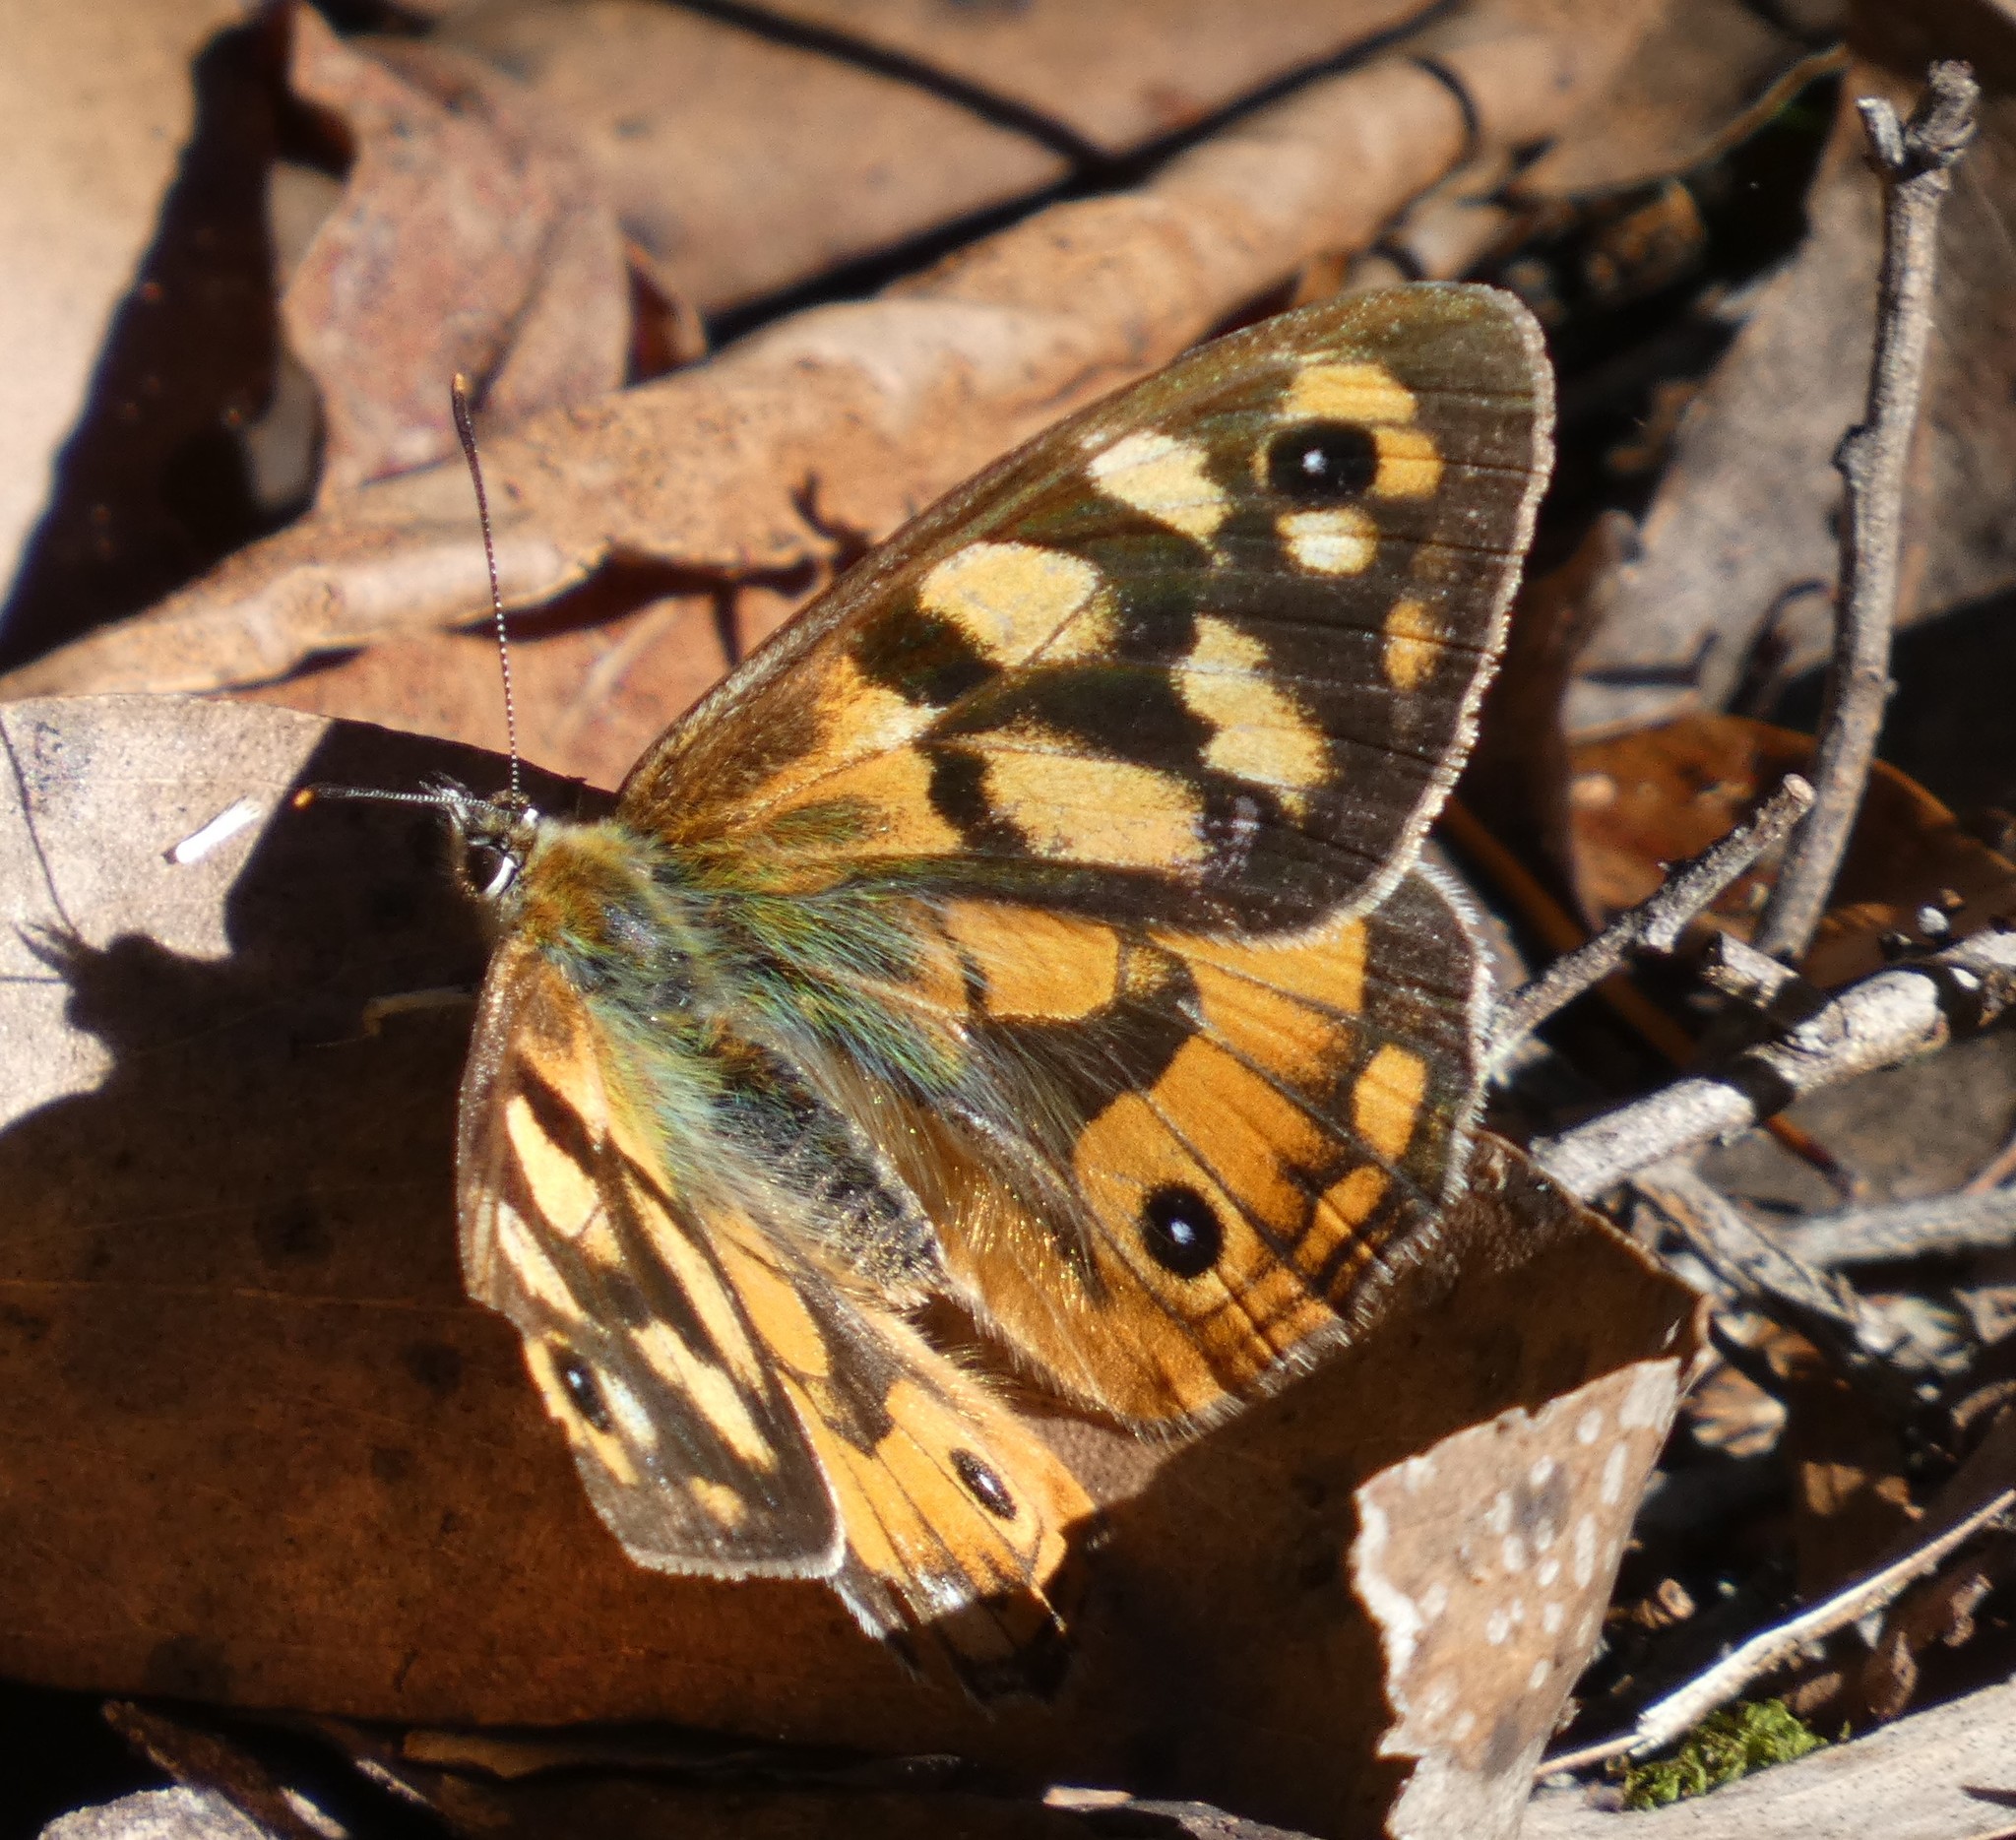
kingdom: Animalia
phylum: Arthropoda
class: Insecta
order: Lepidoptera
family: Nymphalidae
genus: Heteronympha
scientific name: Heteronympha penelope
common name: Shouldered brown
